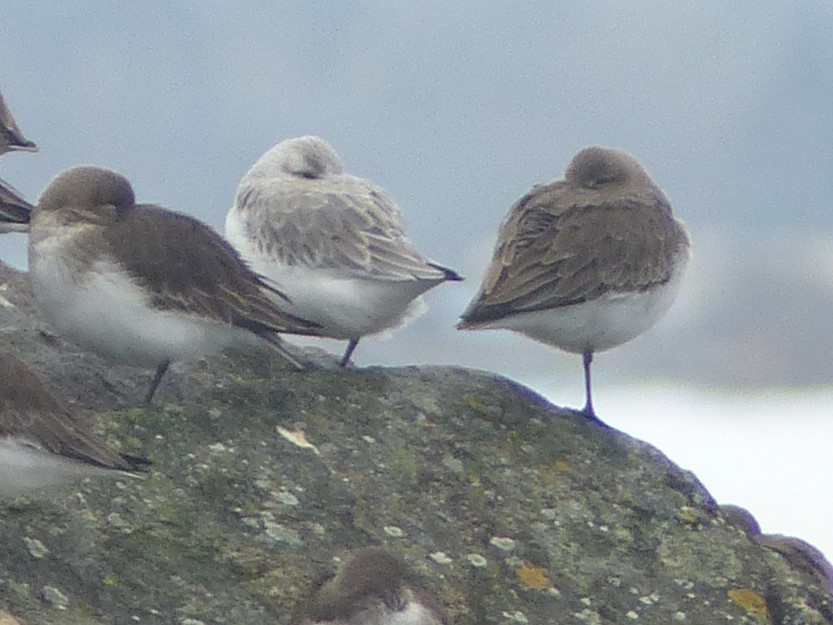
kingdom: Animalia
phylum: Chordata
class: Aves
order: Charadriiformes
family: Scolopacidae
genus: Calidris
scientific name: Calidris alba
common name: Sanderling
